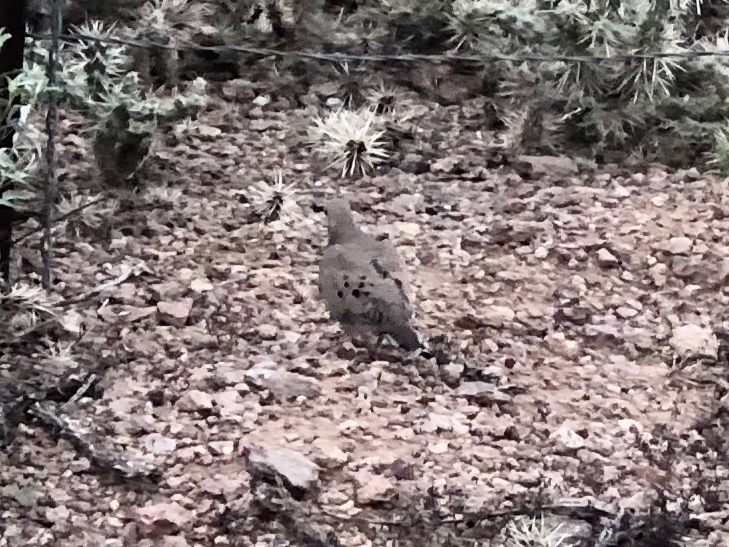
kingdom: Animalia
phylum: Chordata
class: Aves
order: Columbiformes
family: Columbidae
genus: Zenaida
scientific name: Zenaida macroura
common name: Mourning dove
